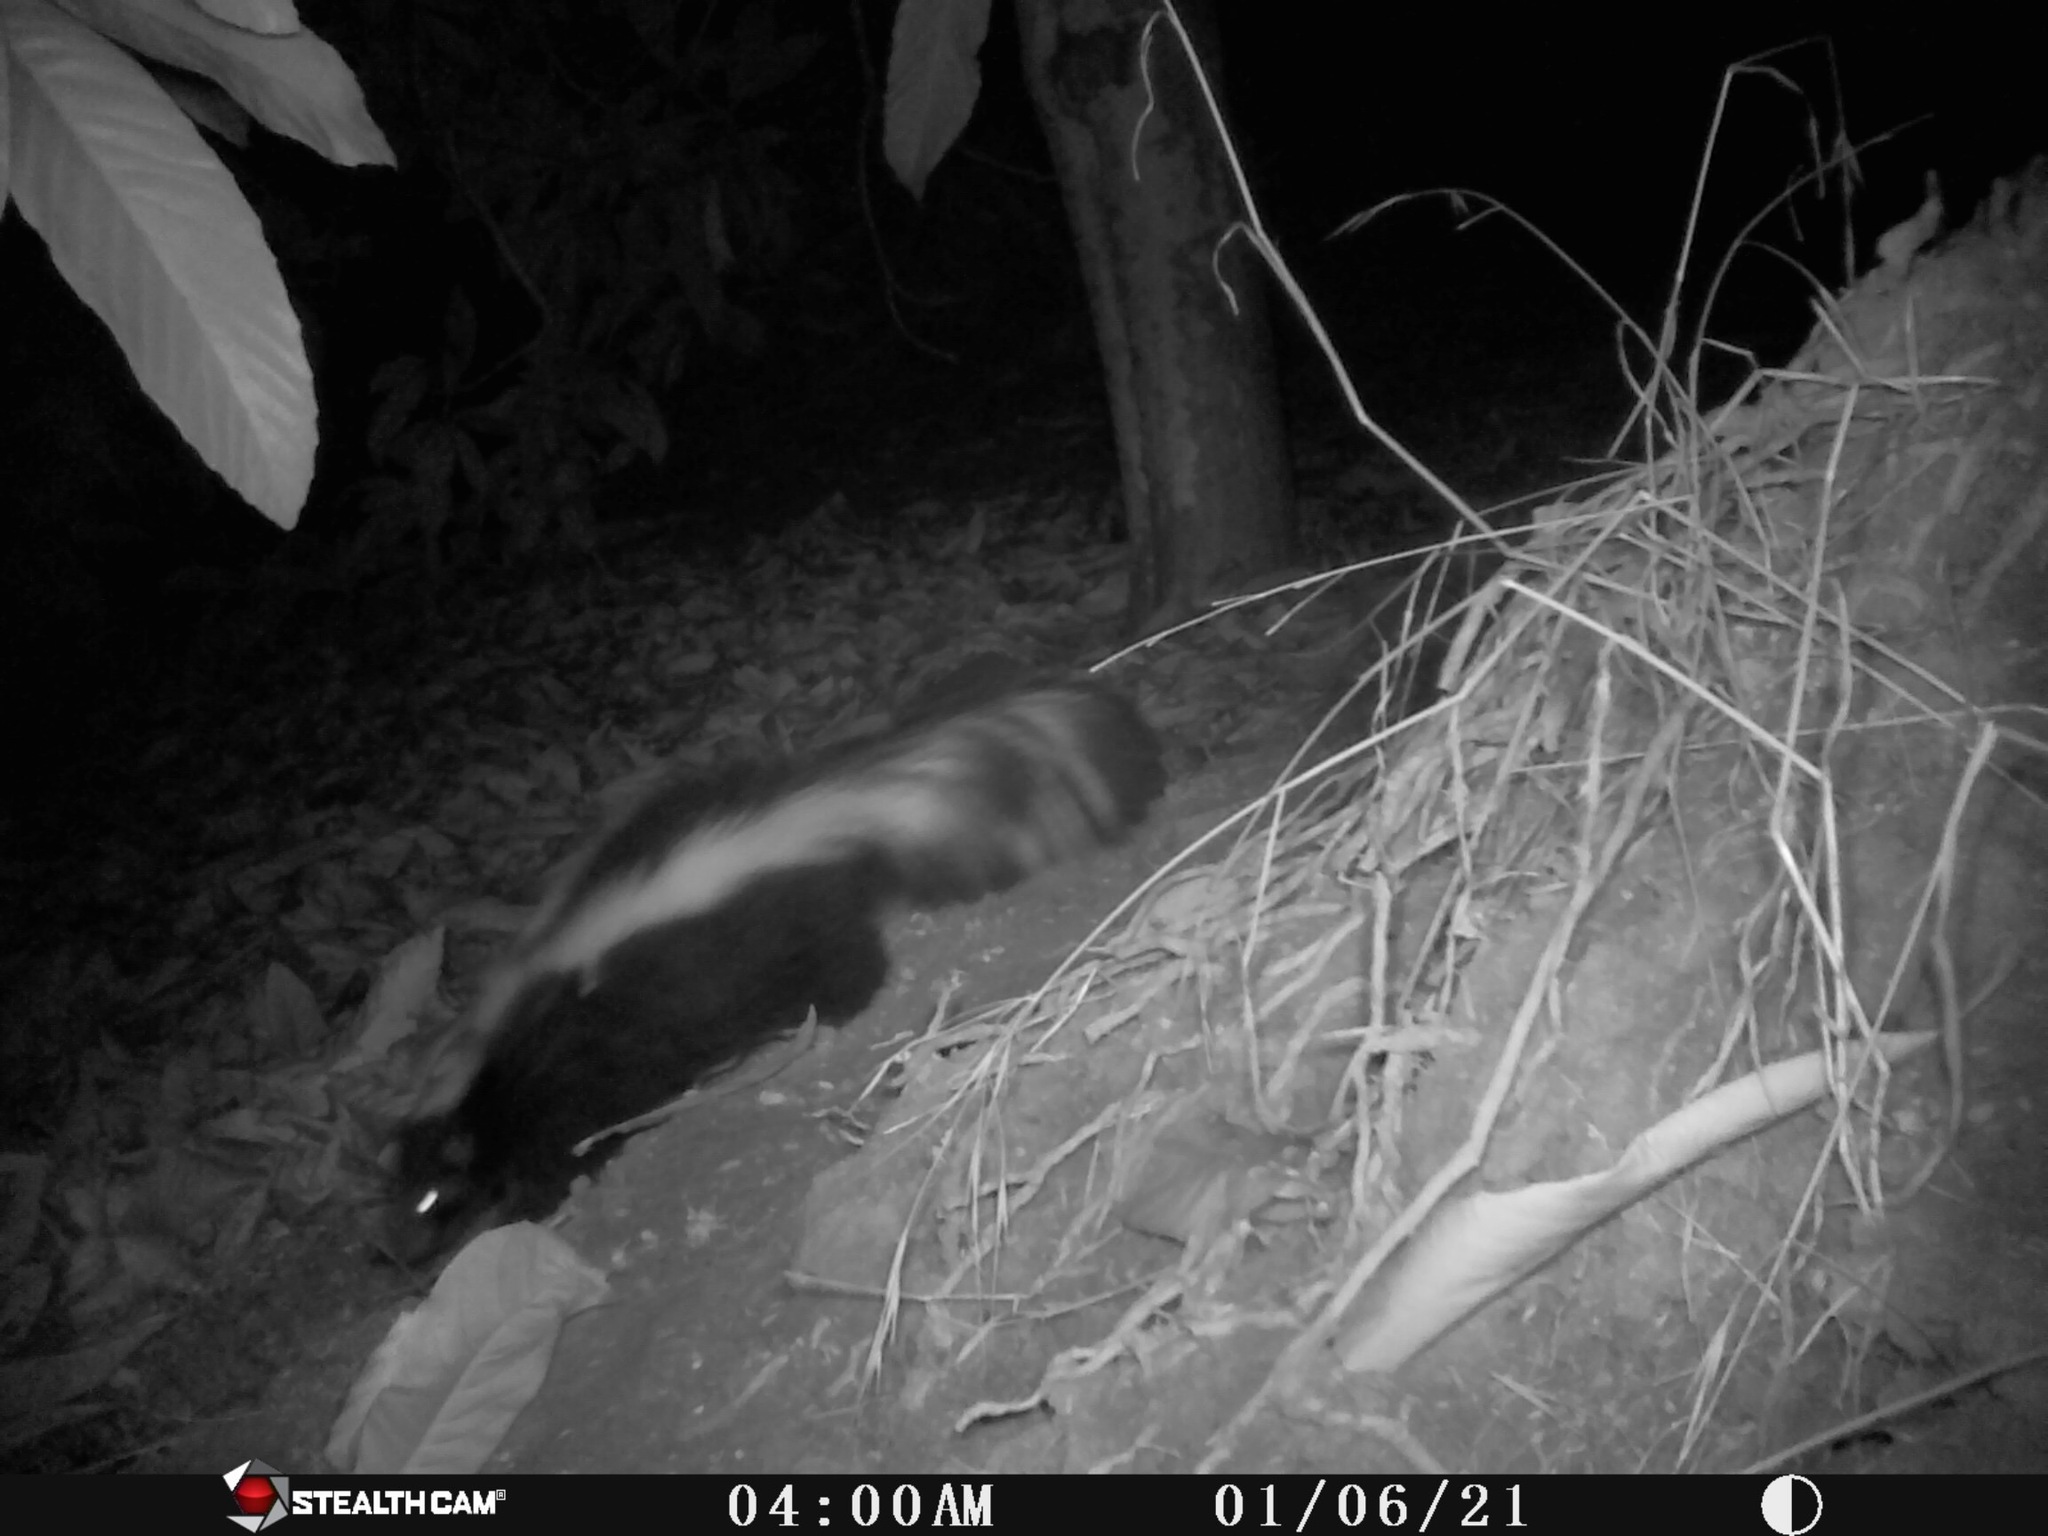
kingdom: Animalia
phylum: Chordata
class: Mammalia
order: Carnivora
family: Mephitidae
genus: Mephitis
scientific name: Mephitis mephitis
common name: Striped skunk
